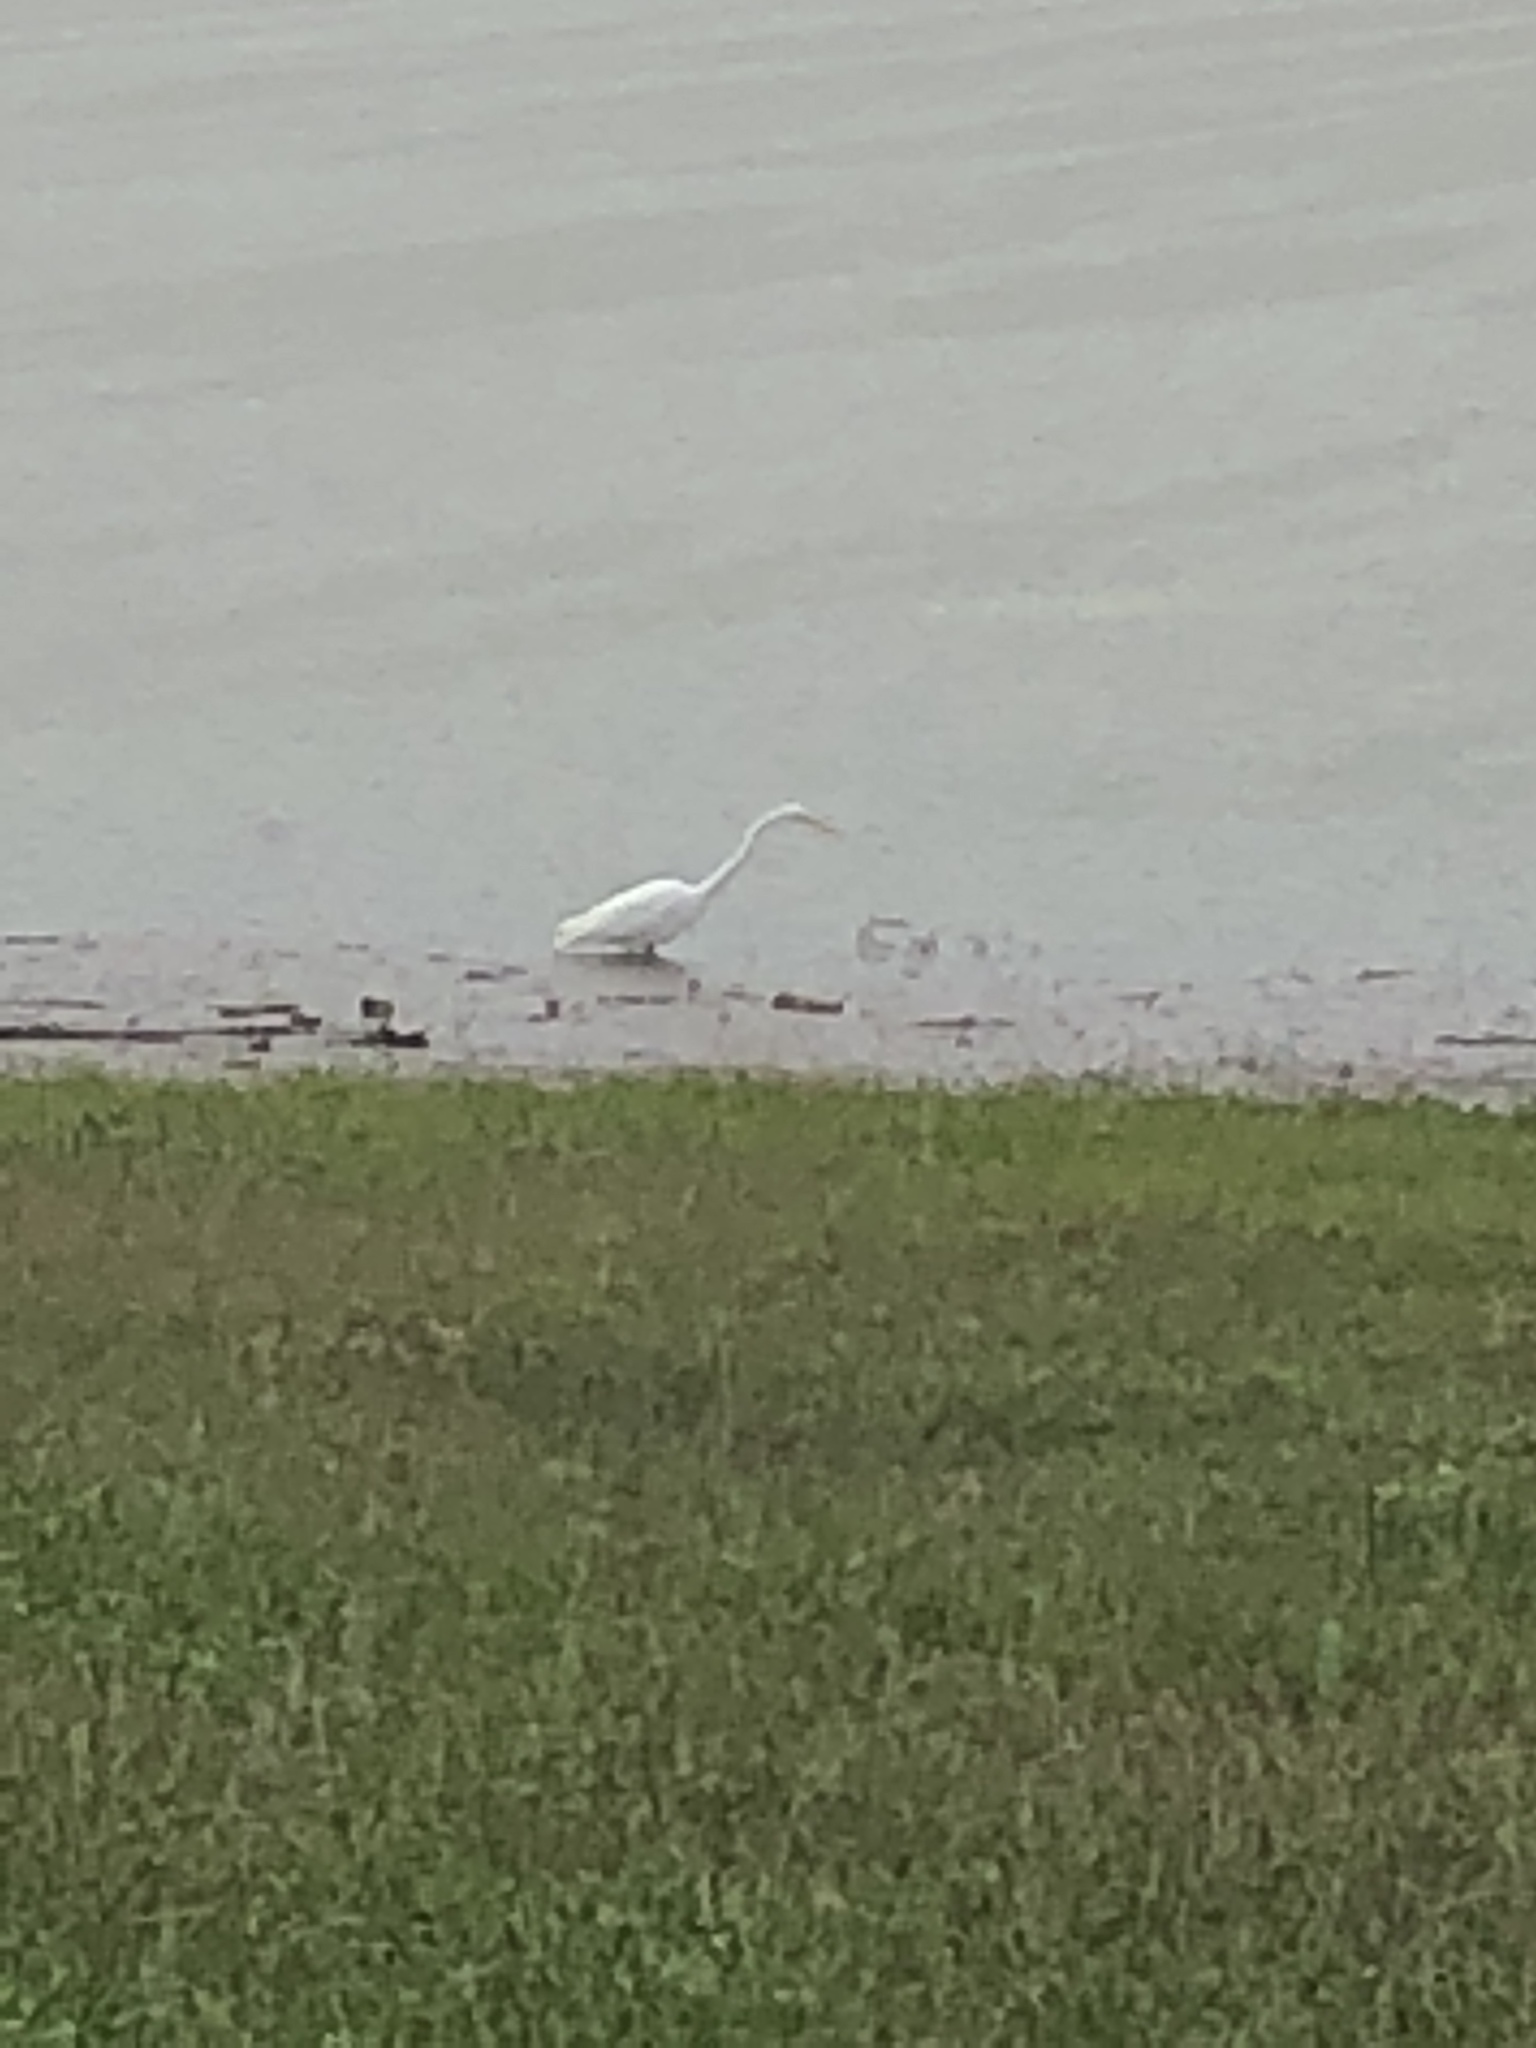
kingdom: Animalia
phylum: Chordata
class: Aves
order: Pelecaniformes
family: Ardeidae
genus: Ardea
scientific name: Ardea alba
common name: Great egret
